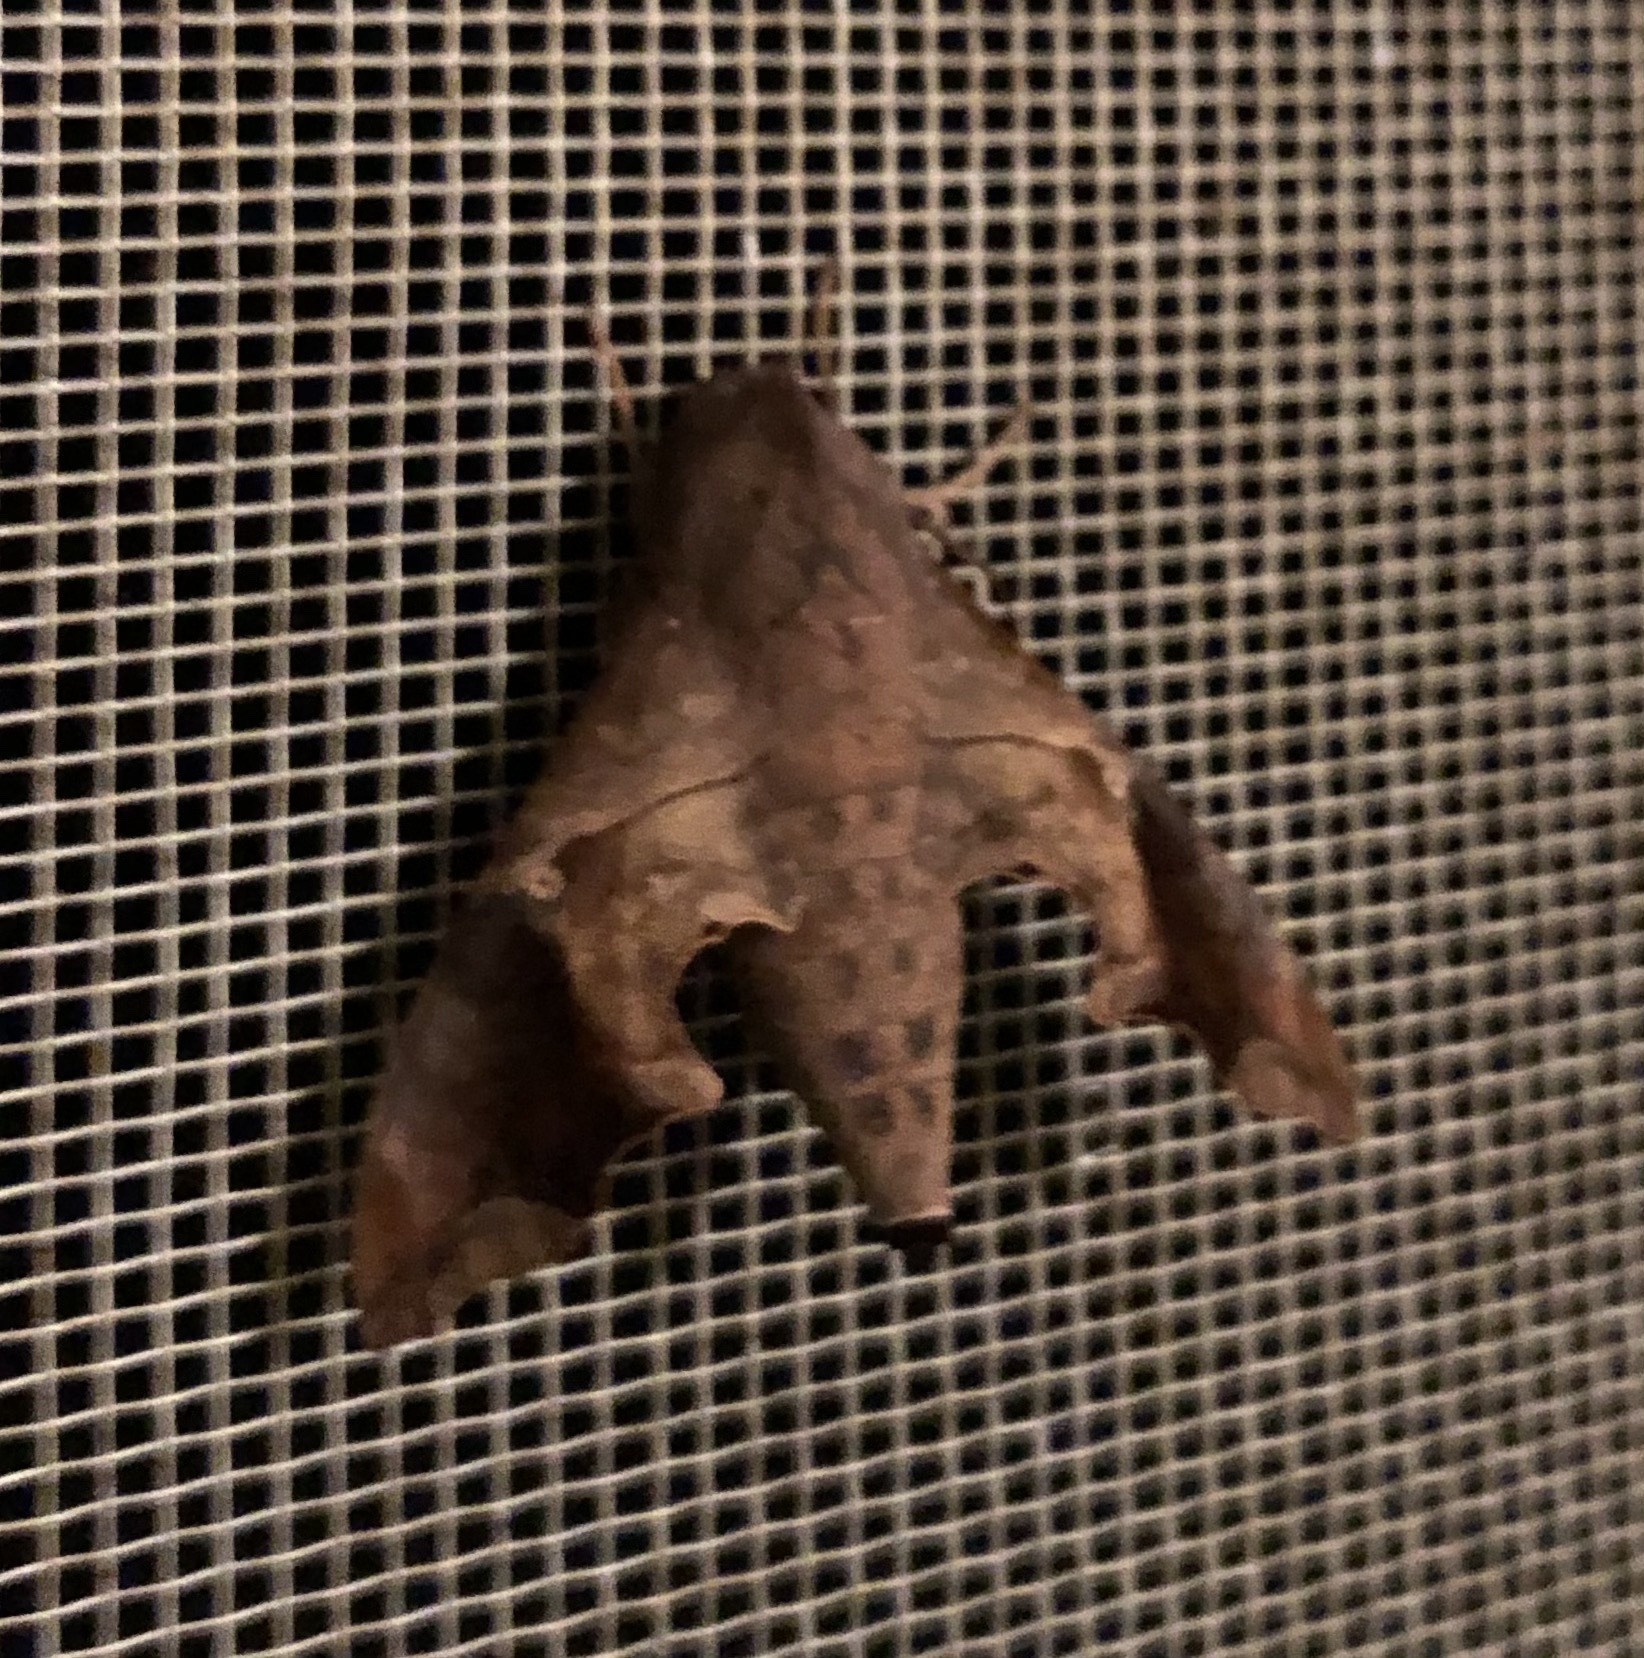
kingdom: Animalia
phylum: Arthropoda
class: Insecta
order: Lepidoptera
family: Sphingidae
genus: Enyo
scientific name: Enyo lugubris
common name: Mournful sphinx
